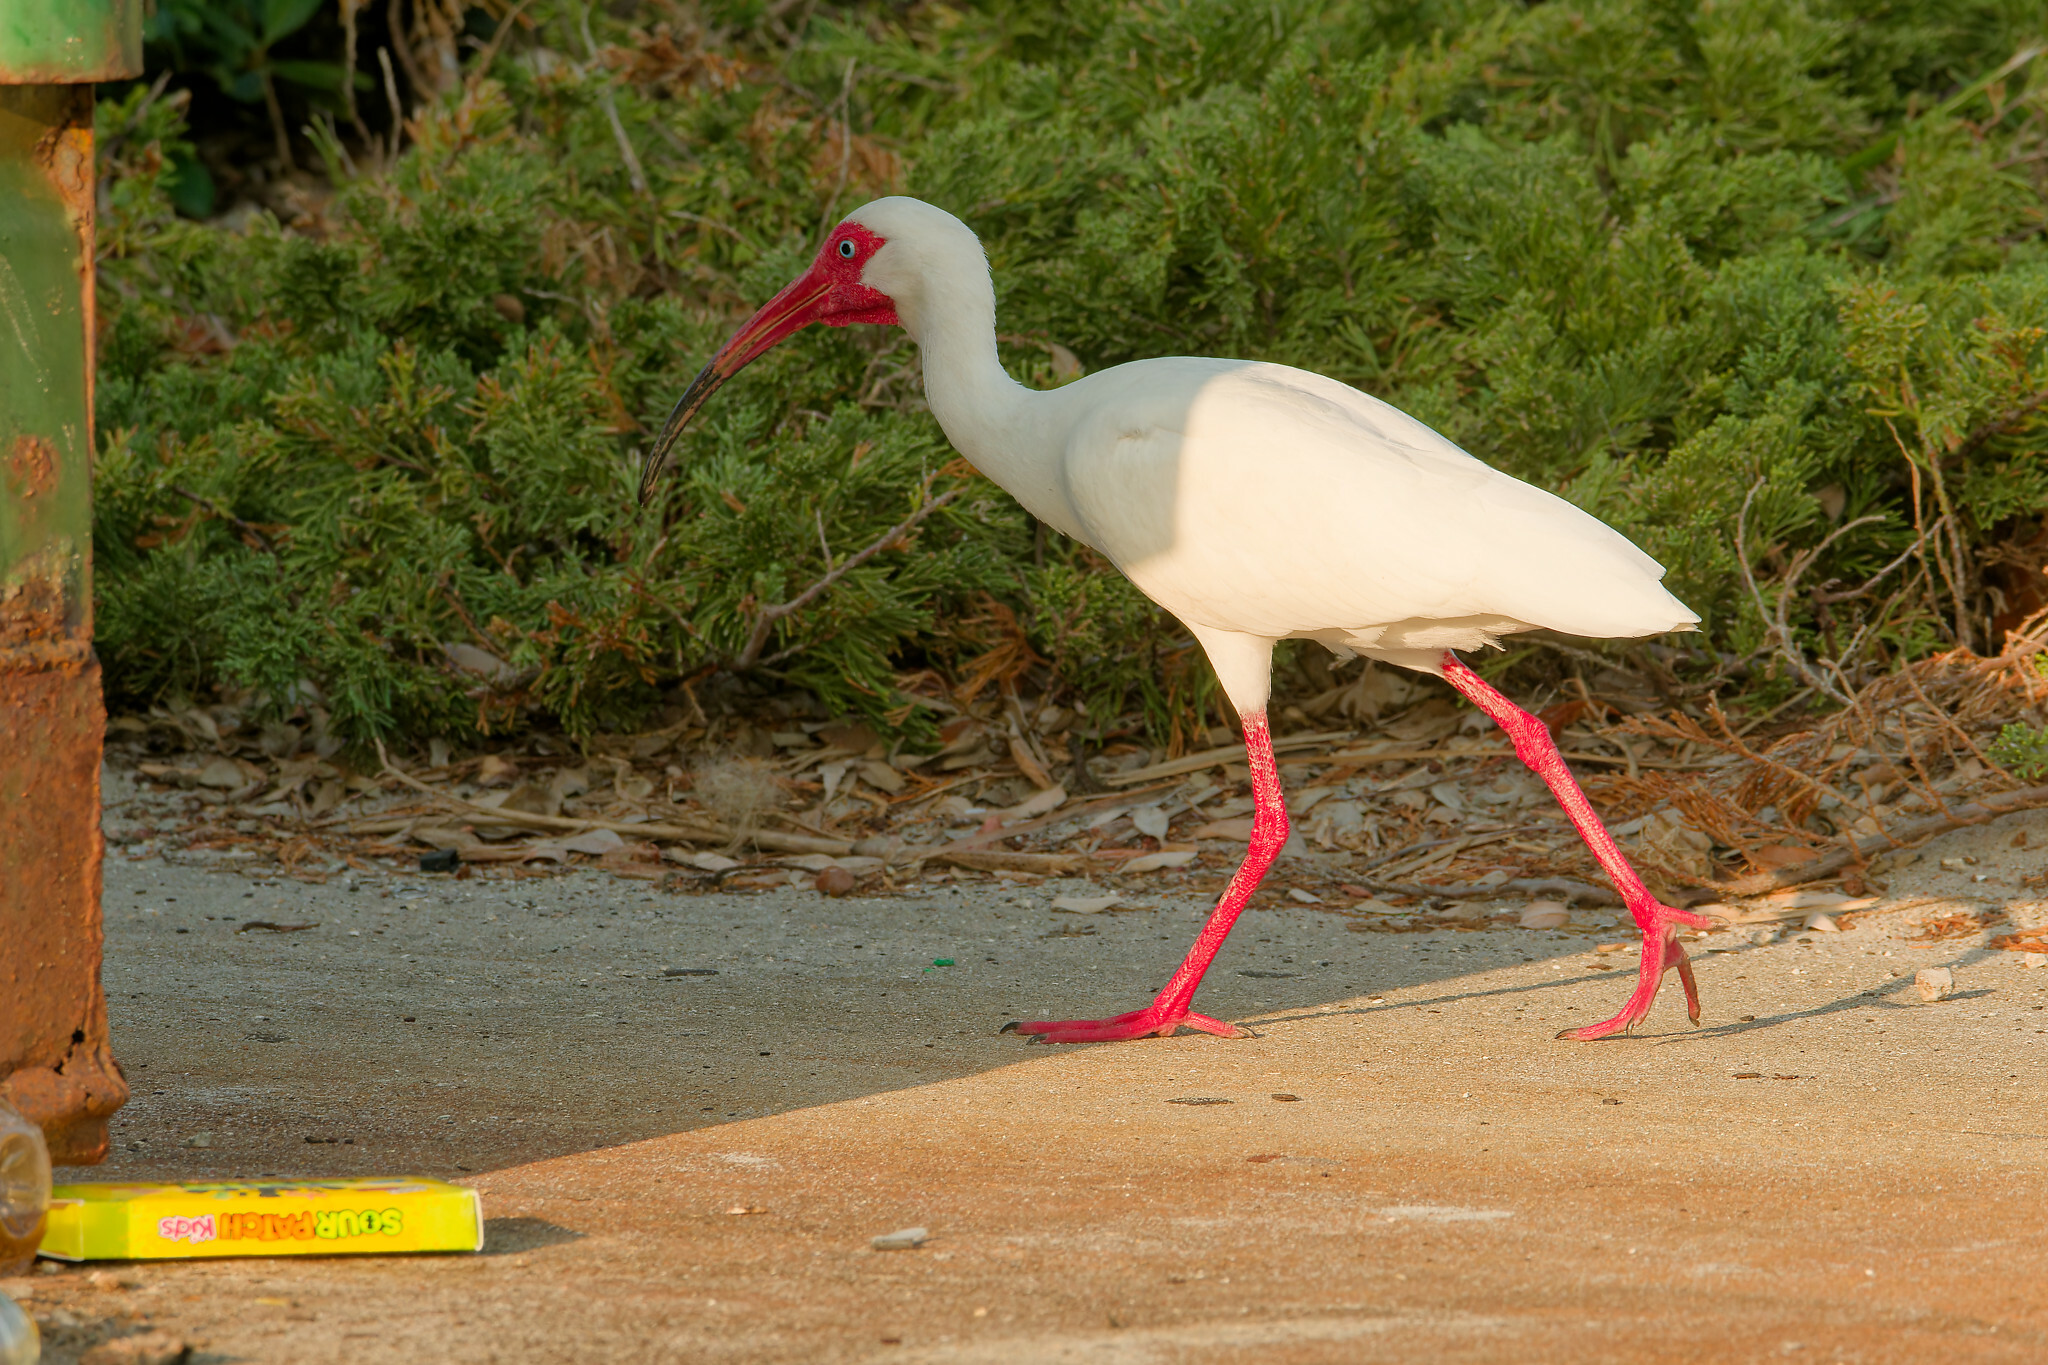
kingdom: Animalia
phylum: Chordata
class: Aves
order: Pelecaniformes
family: Threskiornithidae
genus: Eudocimus
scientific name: Eudocimus albus
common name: White ibis
